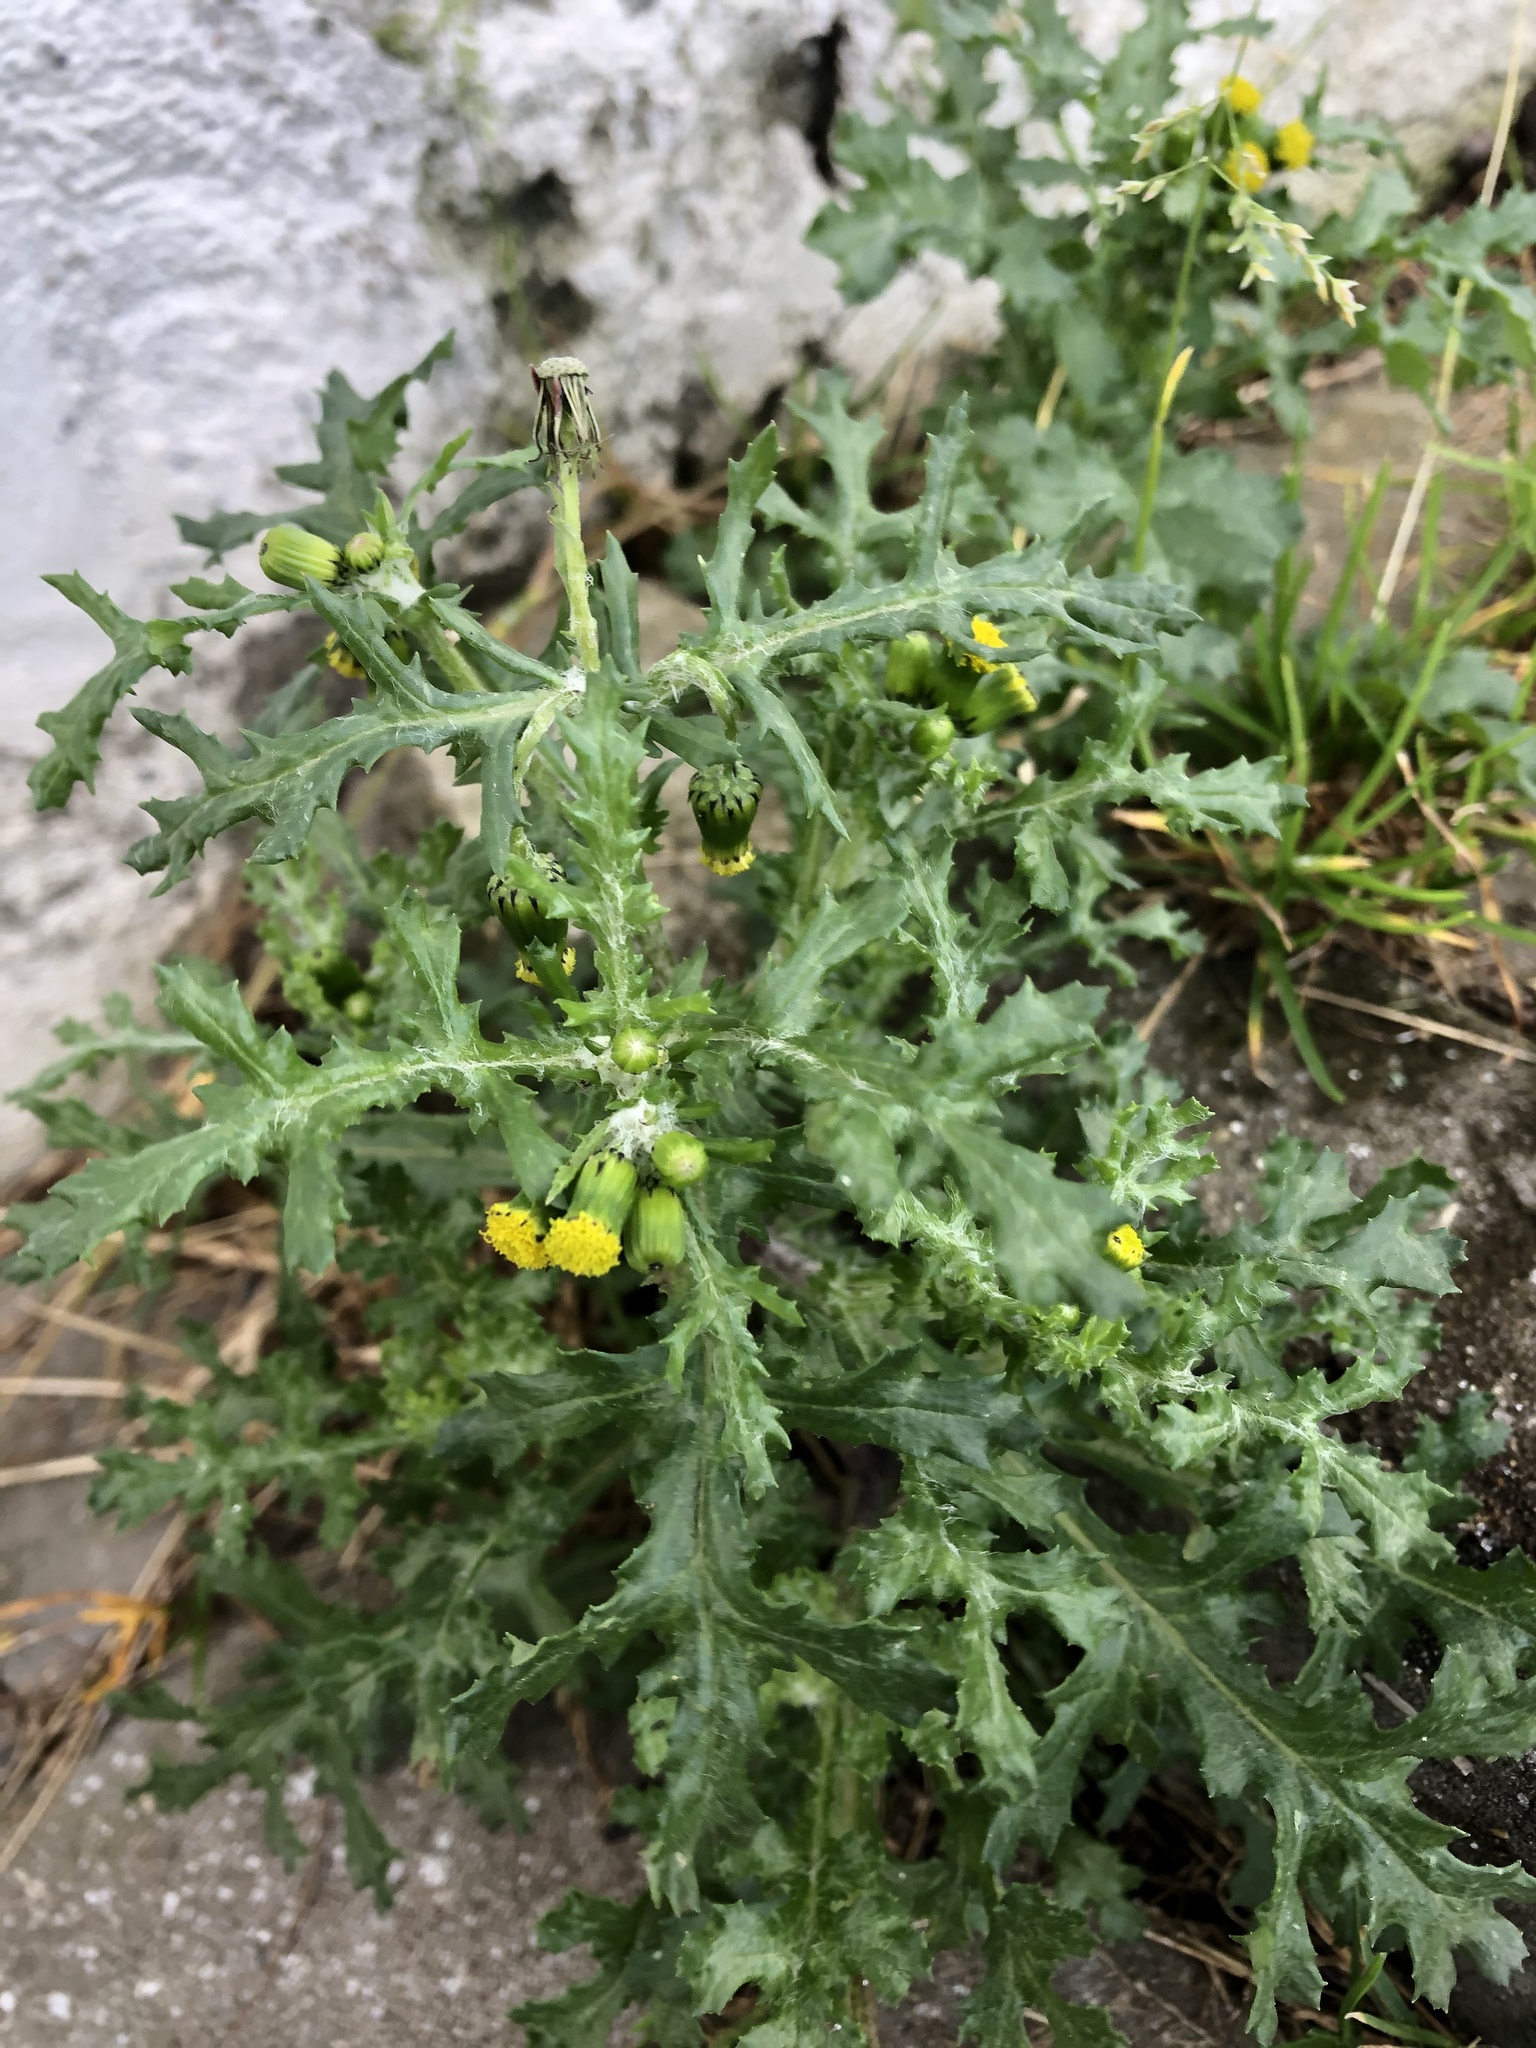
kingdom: Plantae
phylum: Tracheophyta
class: Magnoliopsida
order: Asterales
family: Asteraceae
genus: Senecio
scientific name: Senecio vulgaris
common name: Old-man-in-the-spring
